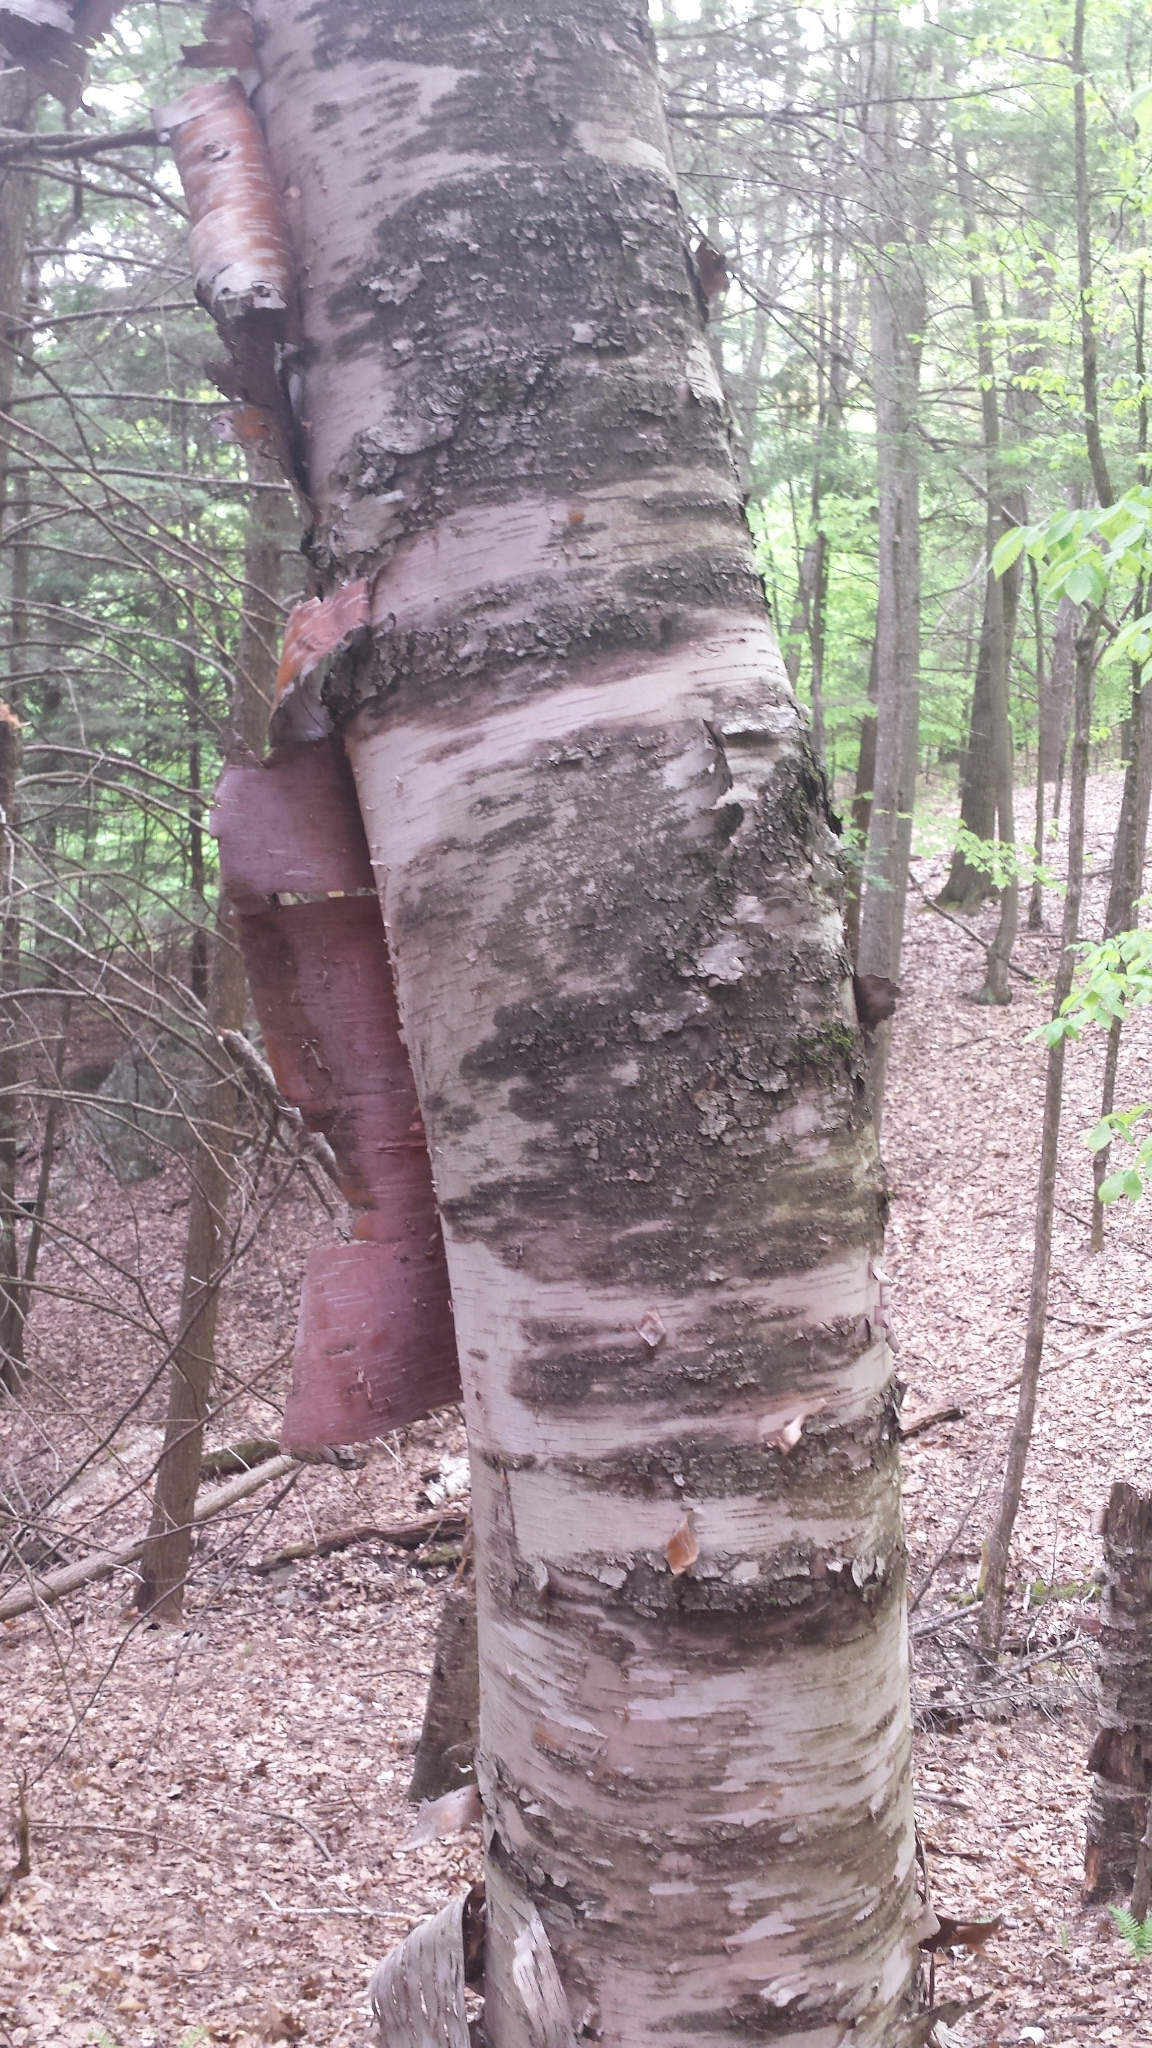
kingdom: Plantae
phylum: Tracheophyta
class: Magnoliopsida
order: Fagales
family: Betulaceae
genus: Betula
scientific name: Betula cordifolia
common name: Mountain white birch
